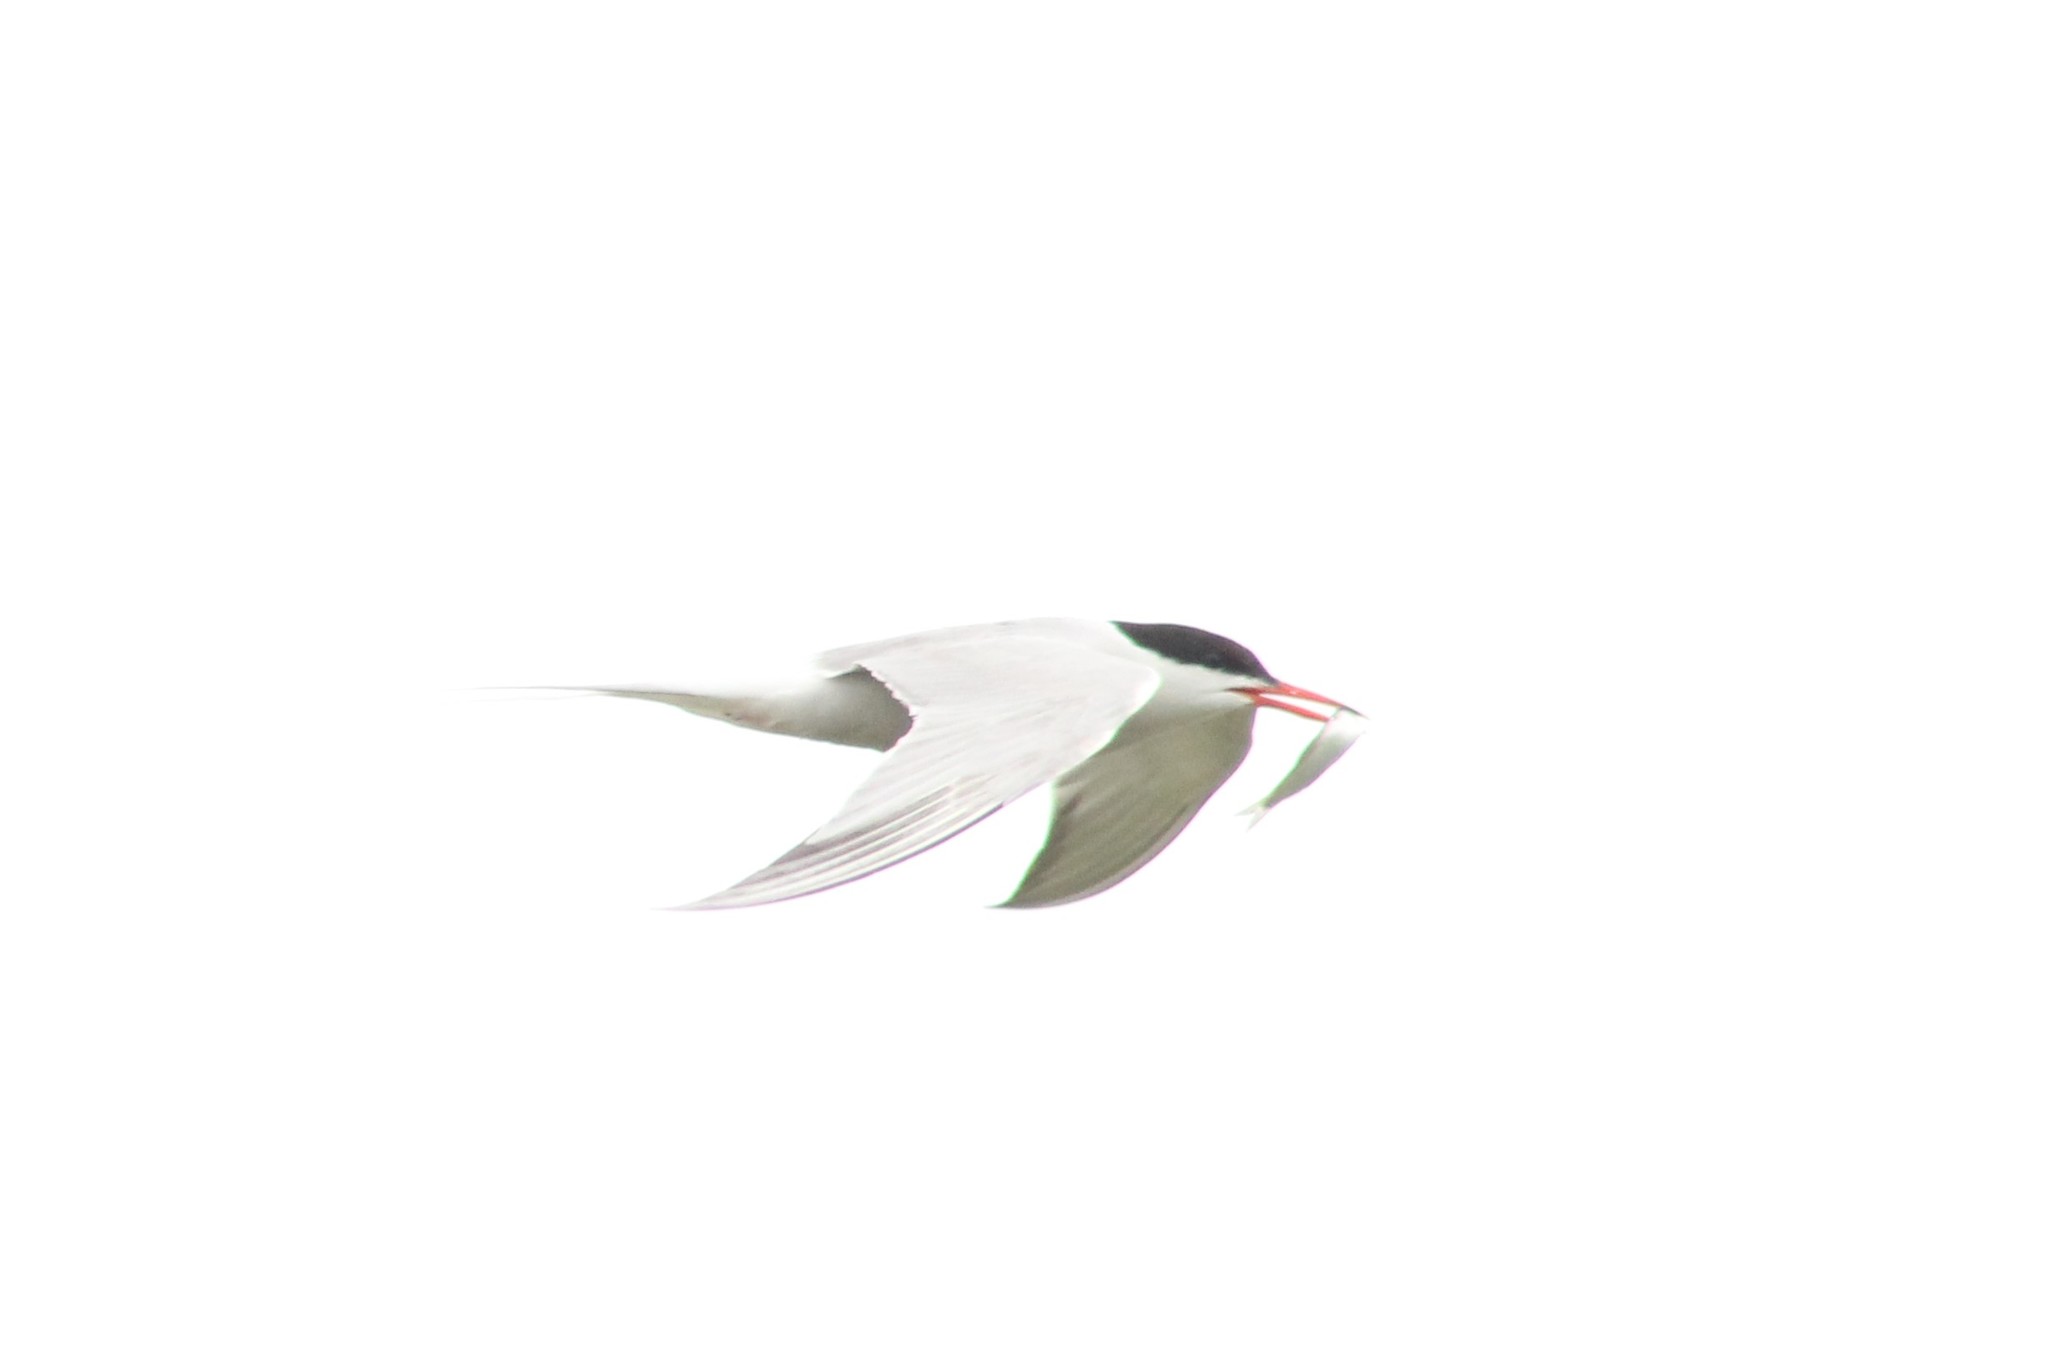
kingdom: Animalia
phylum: Chordata
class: Aves
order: Charadriiformes
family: Laridae
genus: Sterna
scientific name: Sterna hirundo
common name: Common tern
